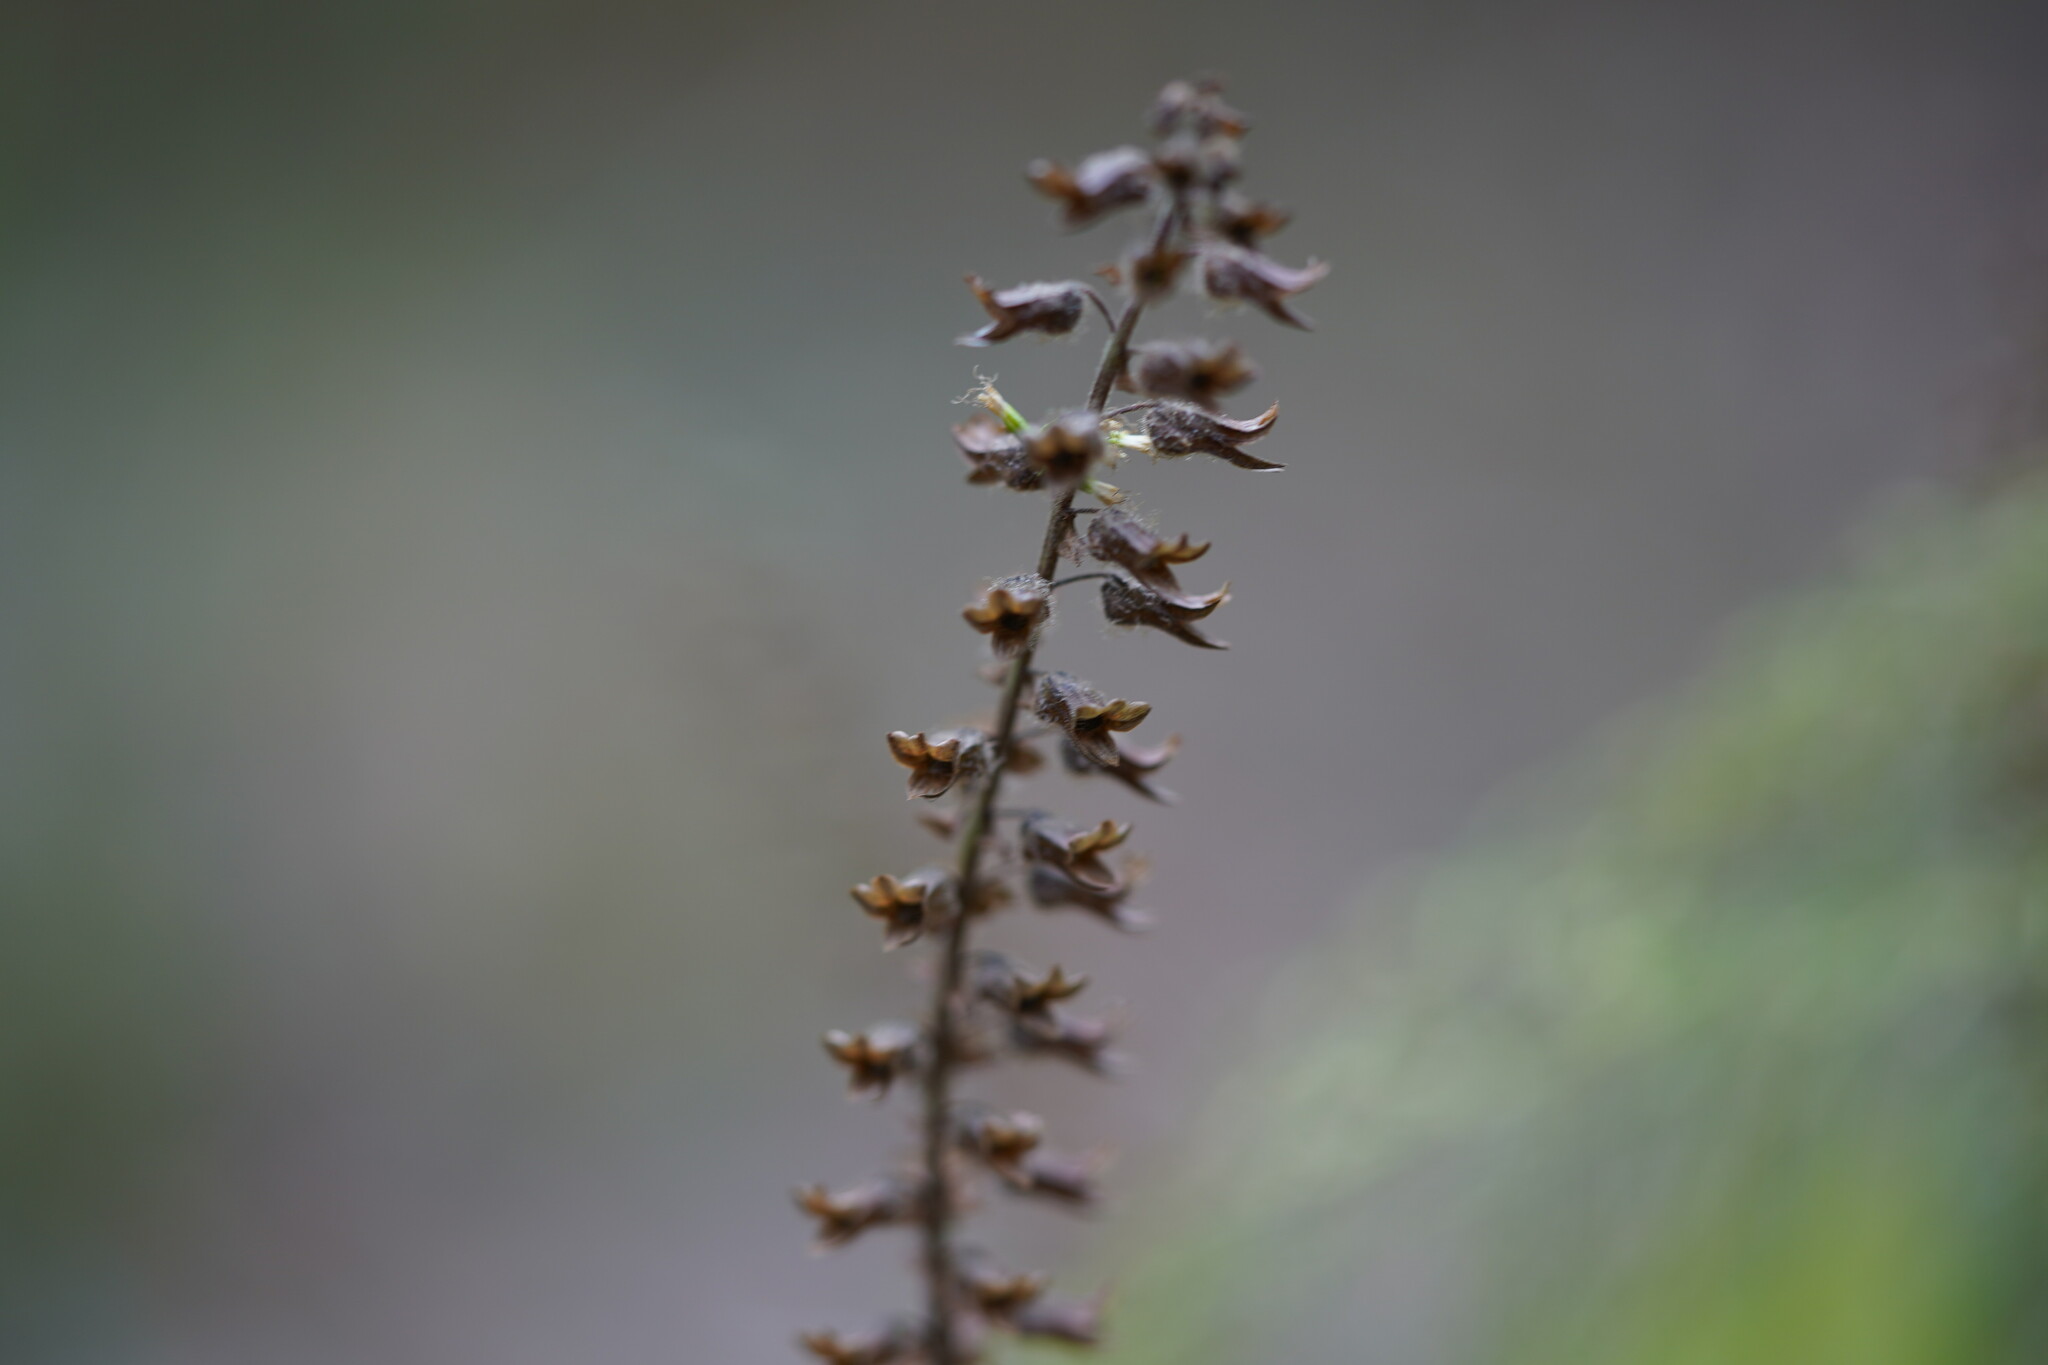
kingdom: Plantae
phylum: Tracheophyta
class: Magnoliopsida
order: Lamiales
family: Lamiaceae
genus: Perilla
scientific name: Perilla frutescens
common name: Perilla
